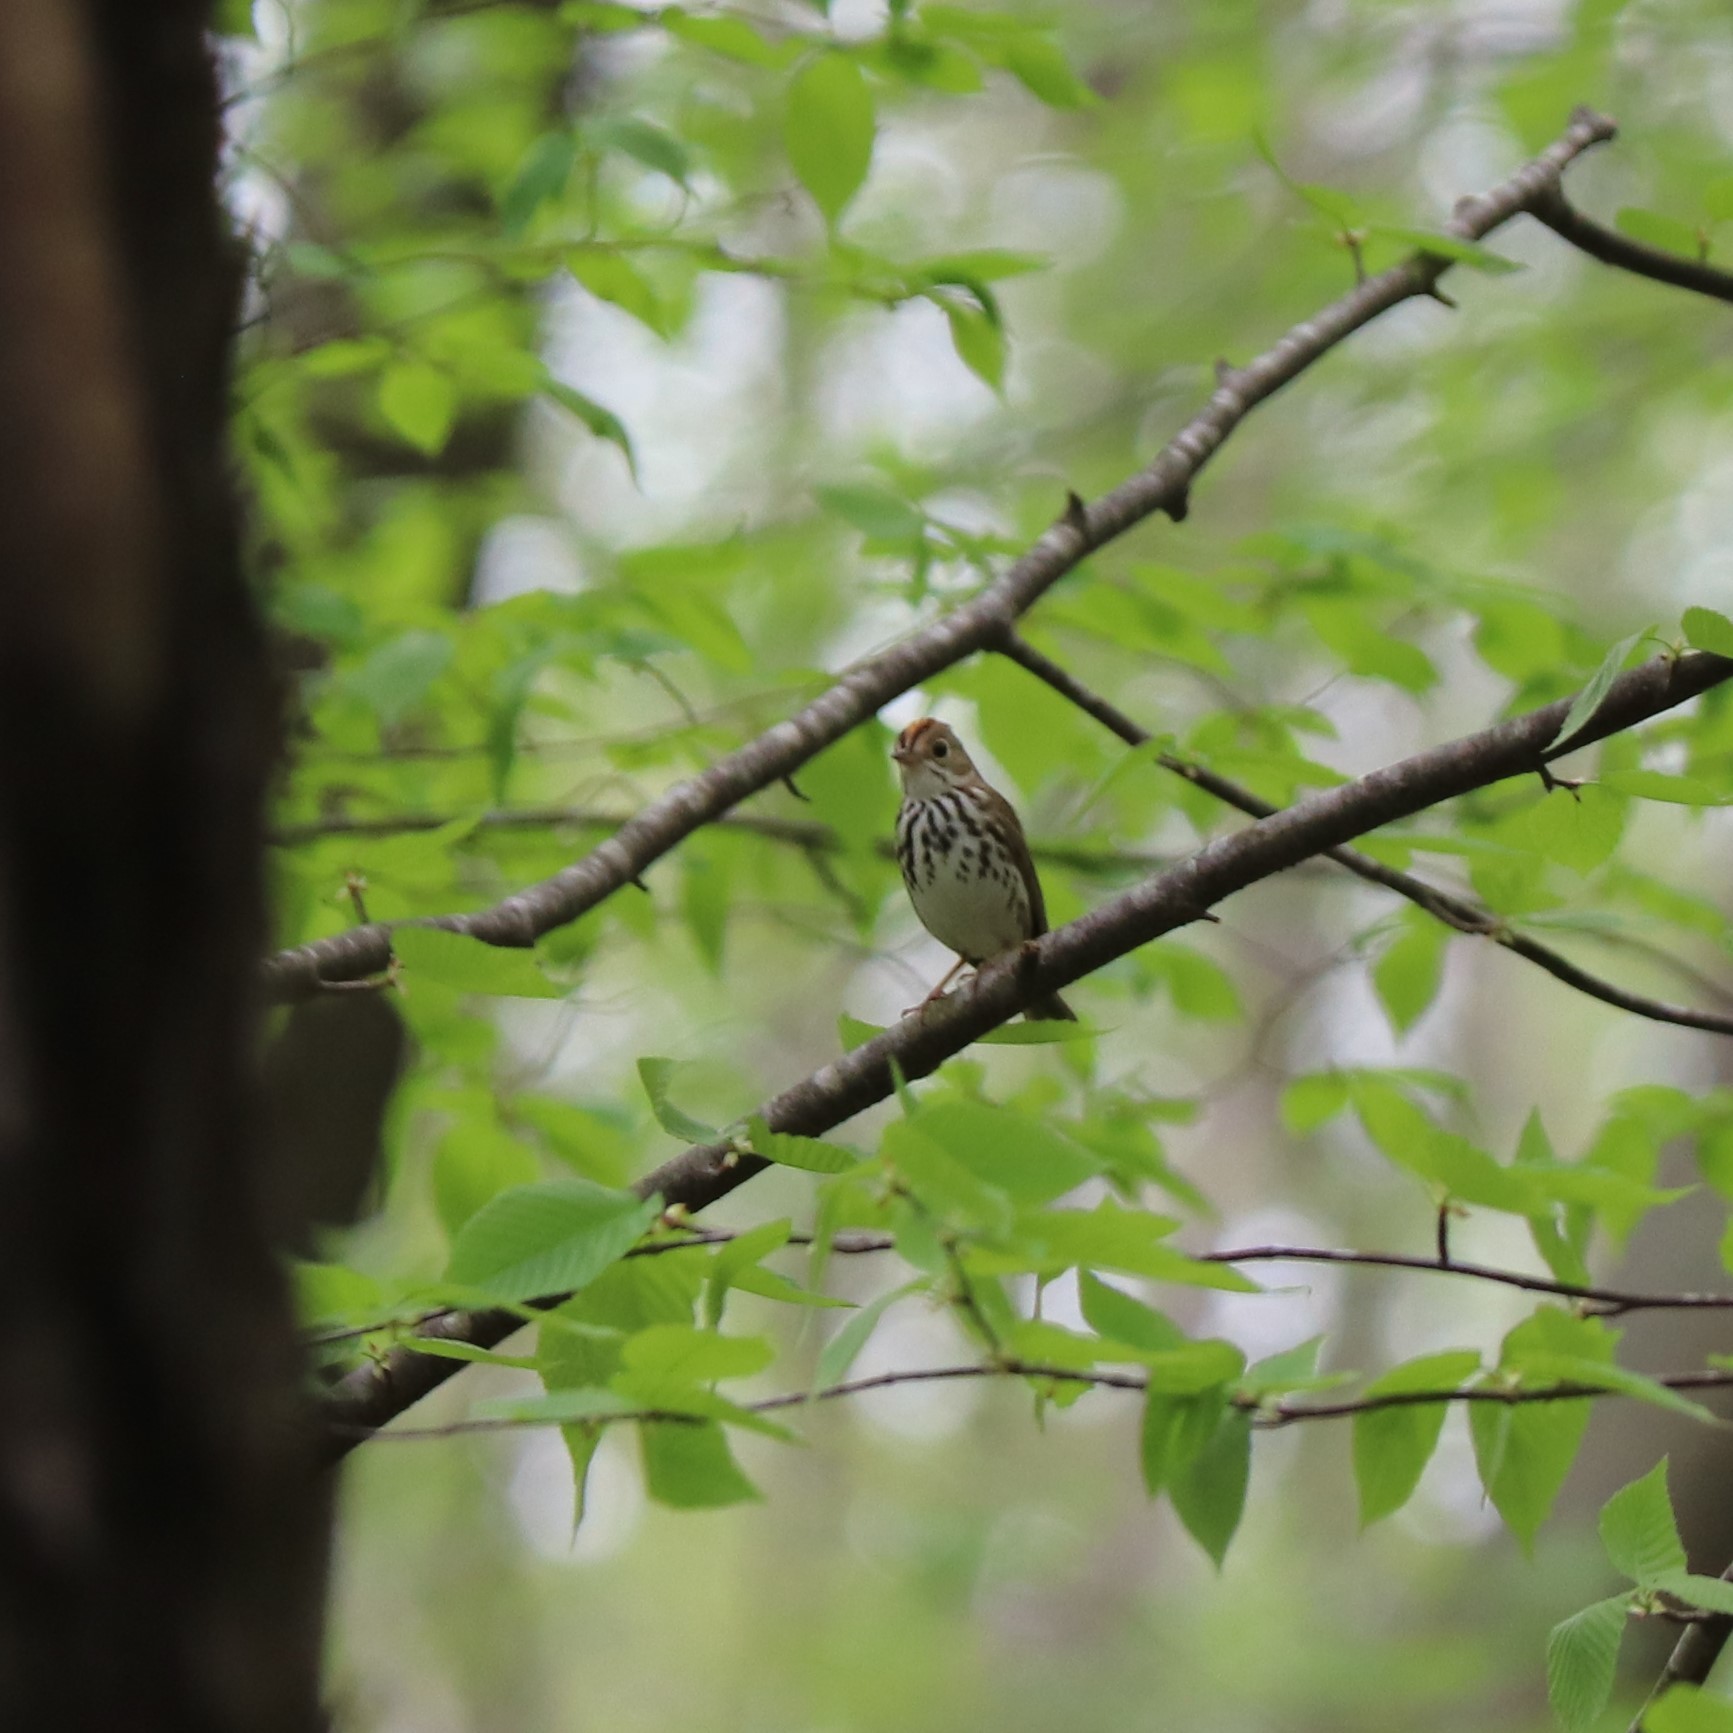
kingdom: Animalia
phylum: Chordata
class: Aves
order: Passeriformes
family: Parulidae
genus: Seiurus
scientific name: Seiurus aurocapilla
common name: Ovenbird
